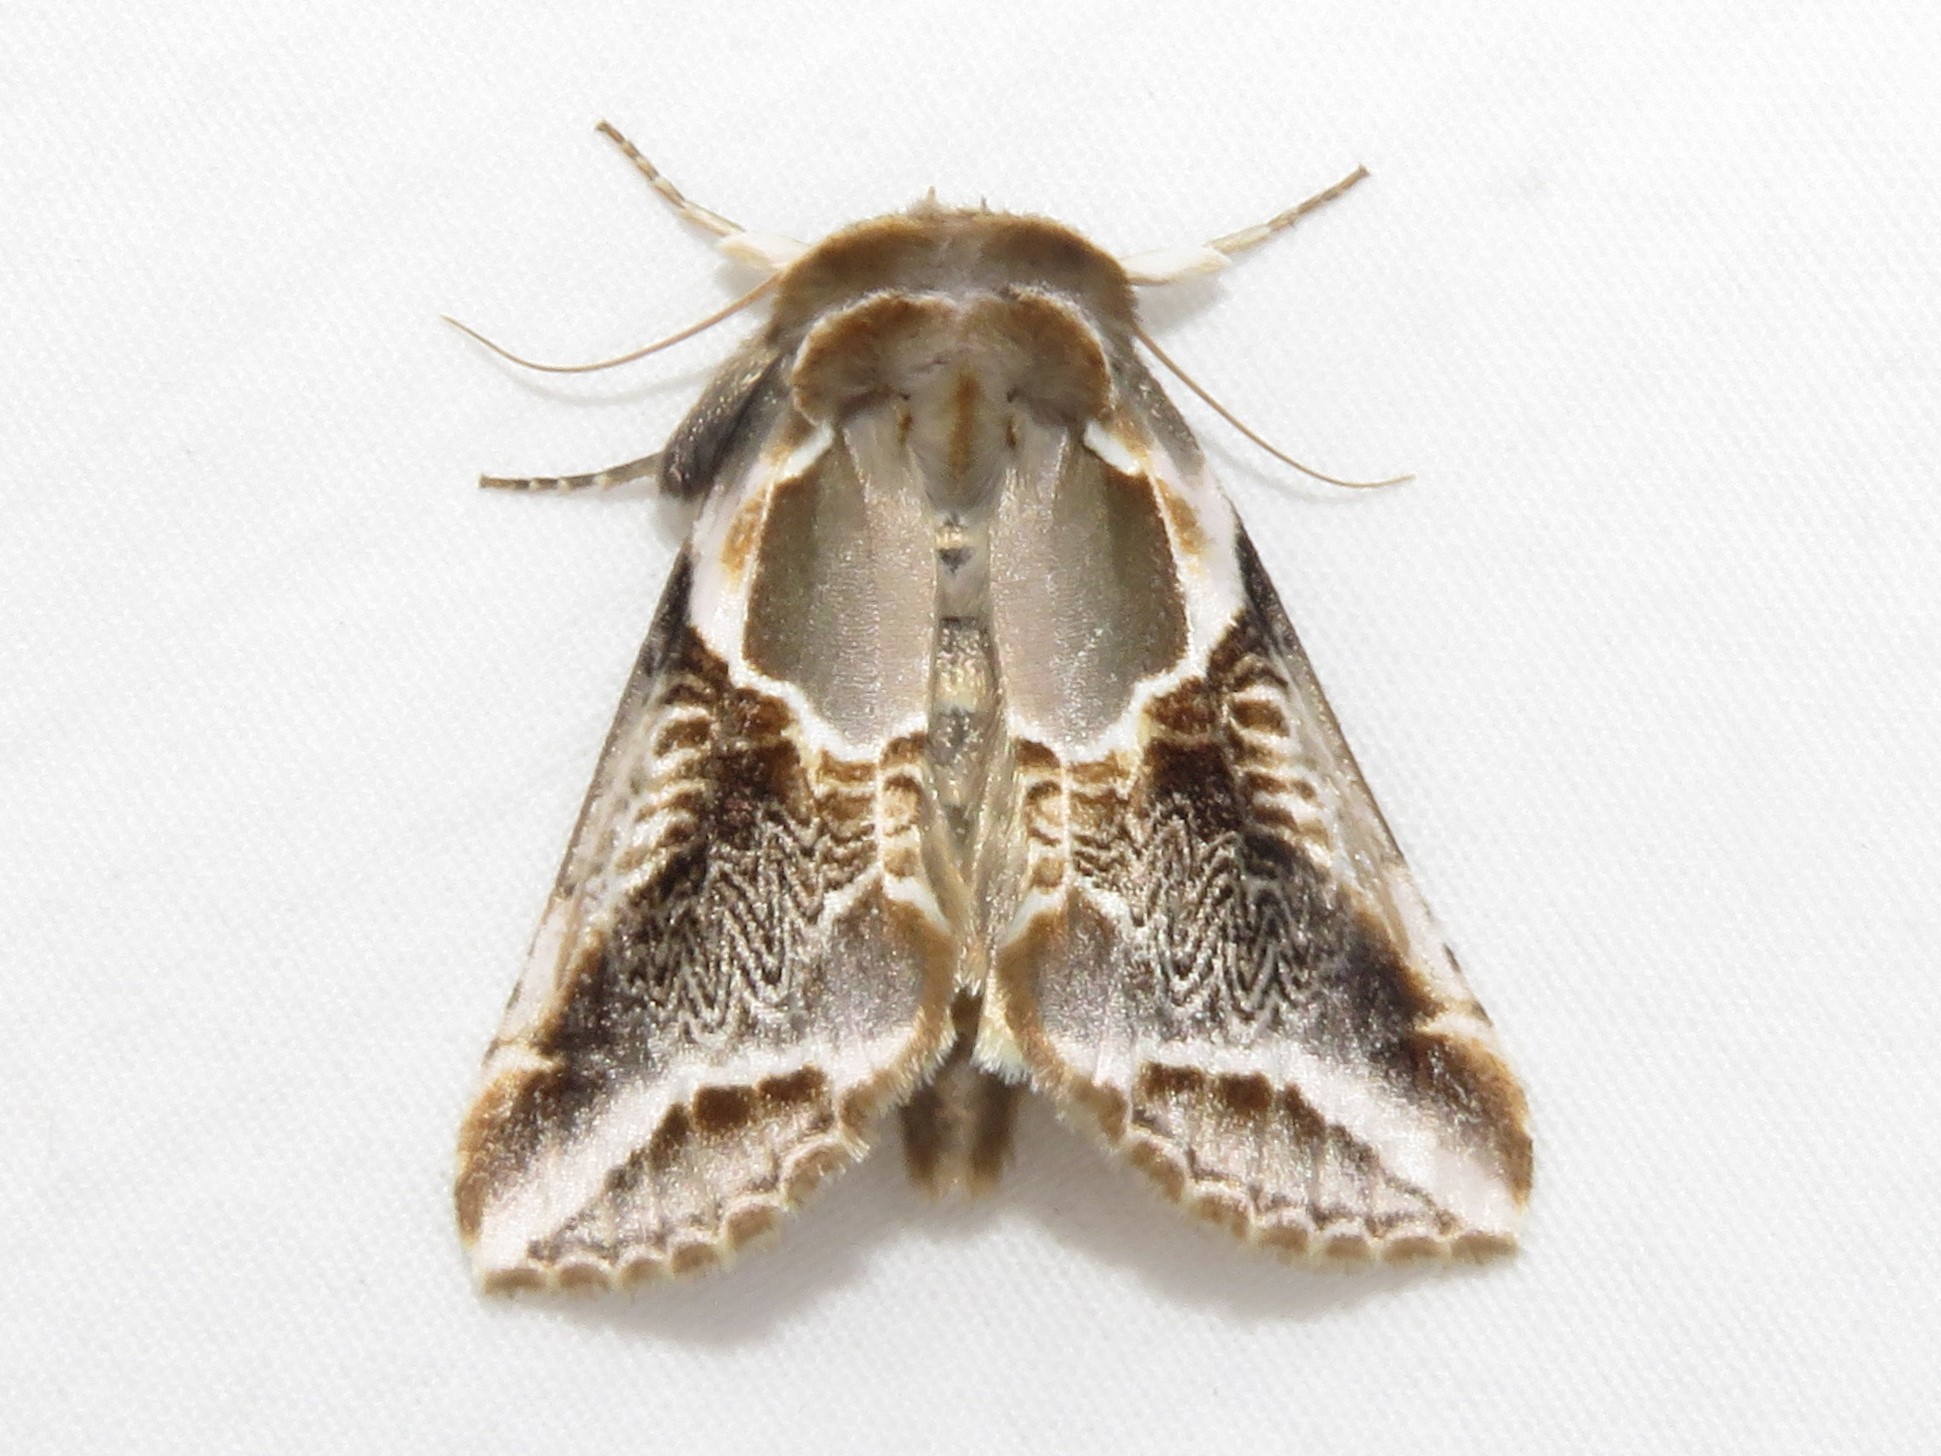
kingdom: Animalia
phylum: Arthropoda
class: Insecta
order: Lepidoptera
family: Drepanidae
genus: Habrosyne
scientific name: Habrosyne scripta
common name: Lettered habrosyne moth
